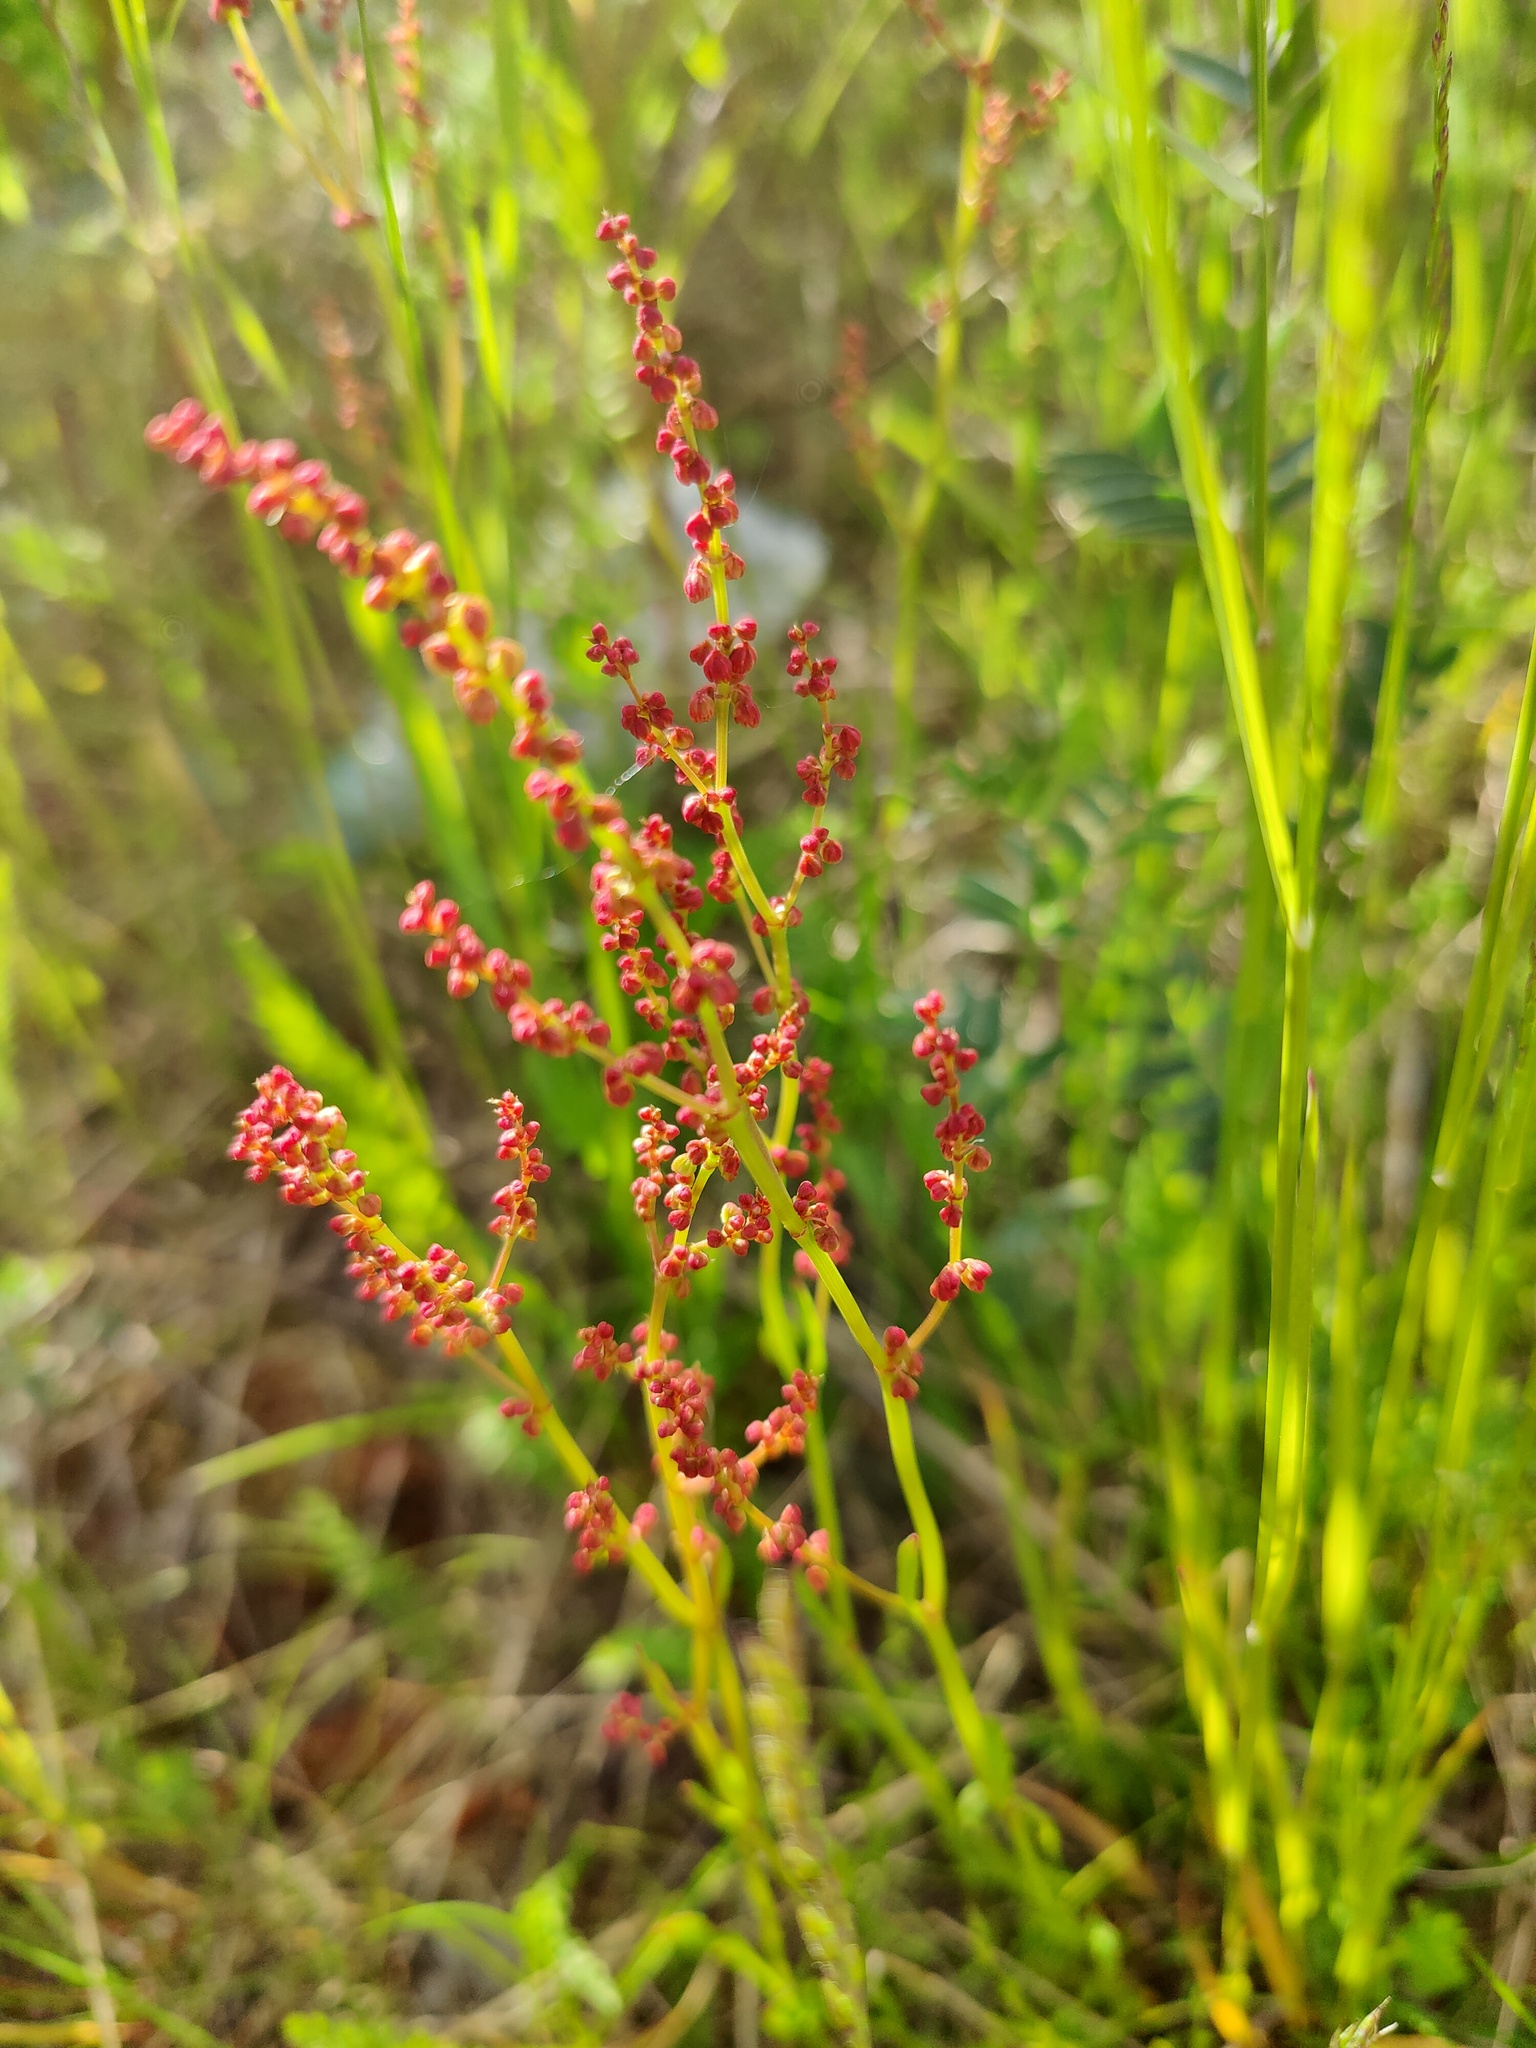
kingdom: Plantae
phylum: Tracheophyta
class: Magnoliopsida
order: Caryophyllales
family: Polygonaceae
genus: Rumex
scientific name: Rumex acetosella
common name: Common sheep sorrel
